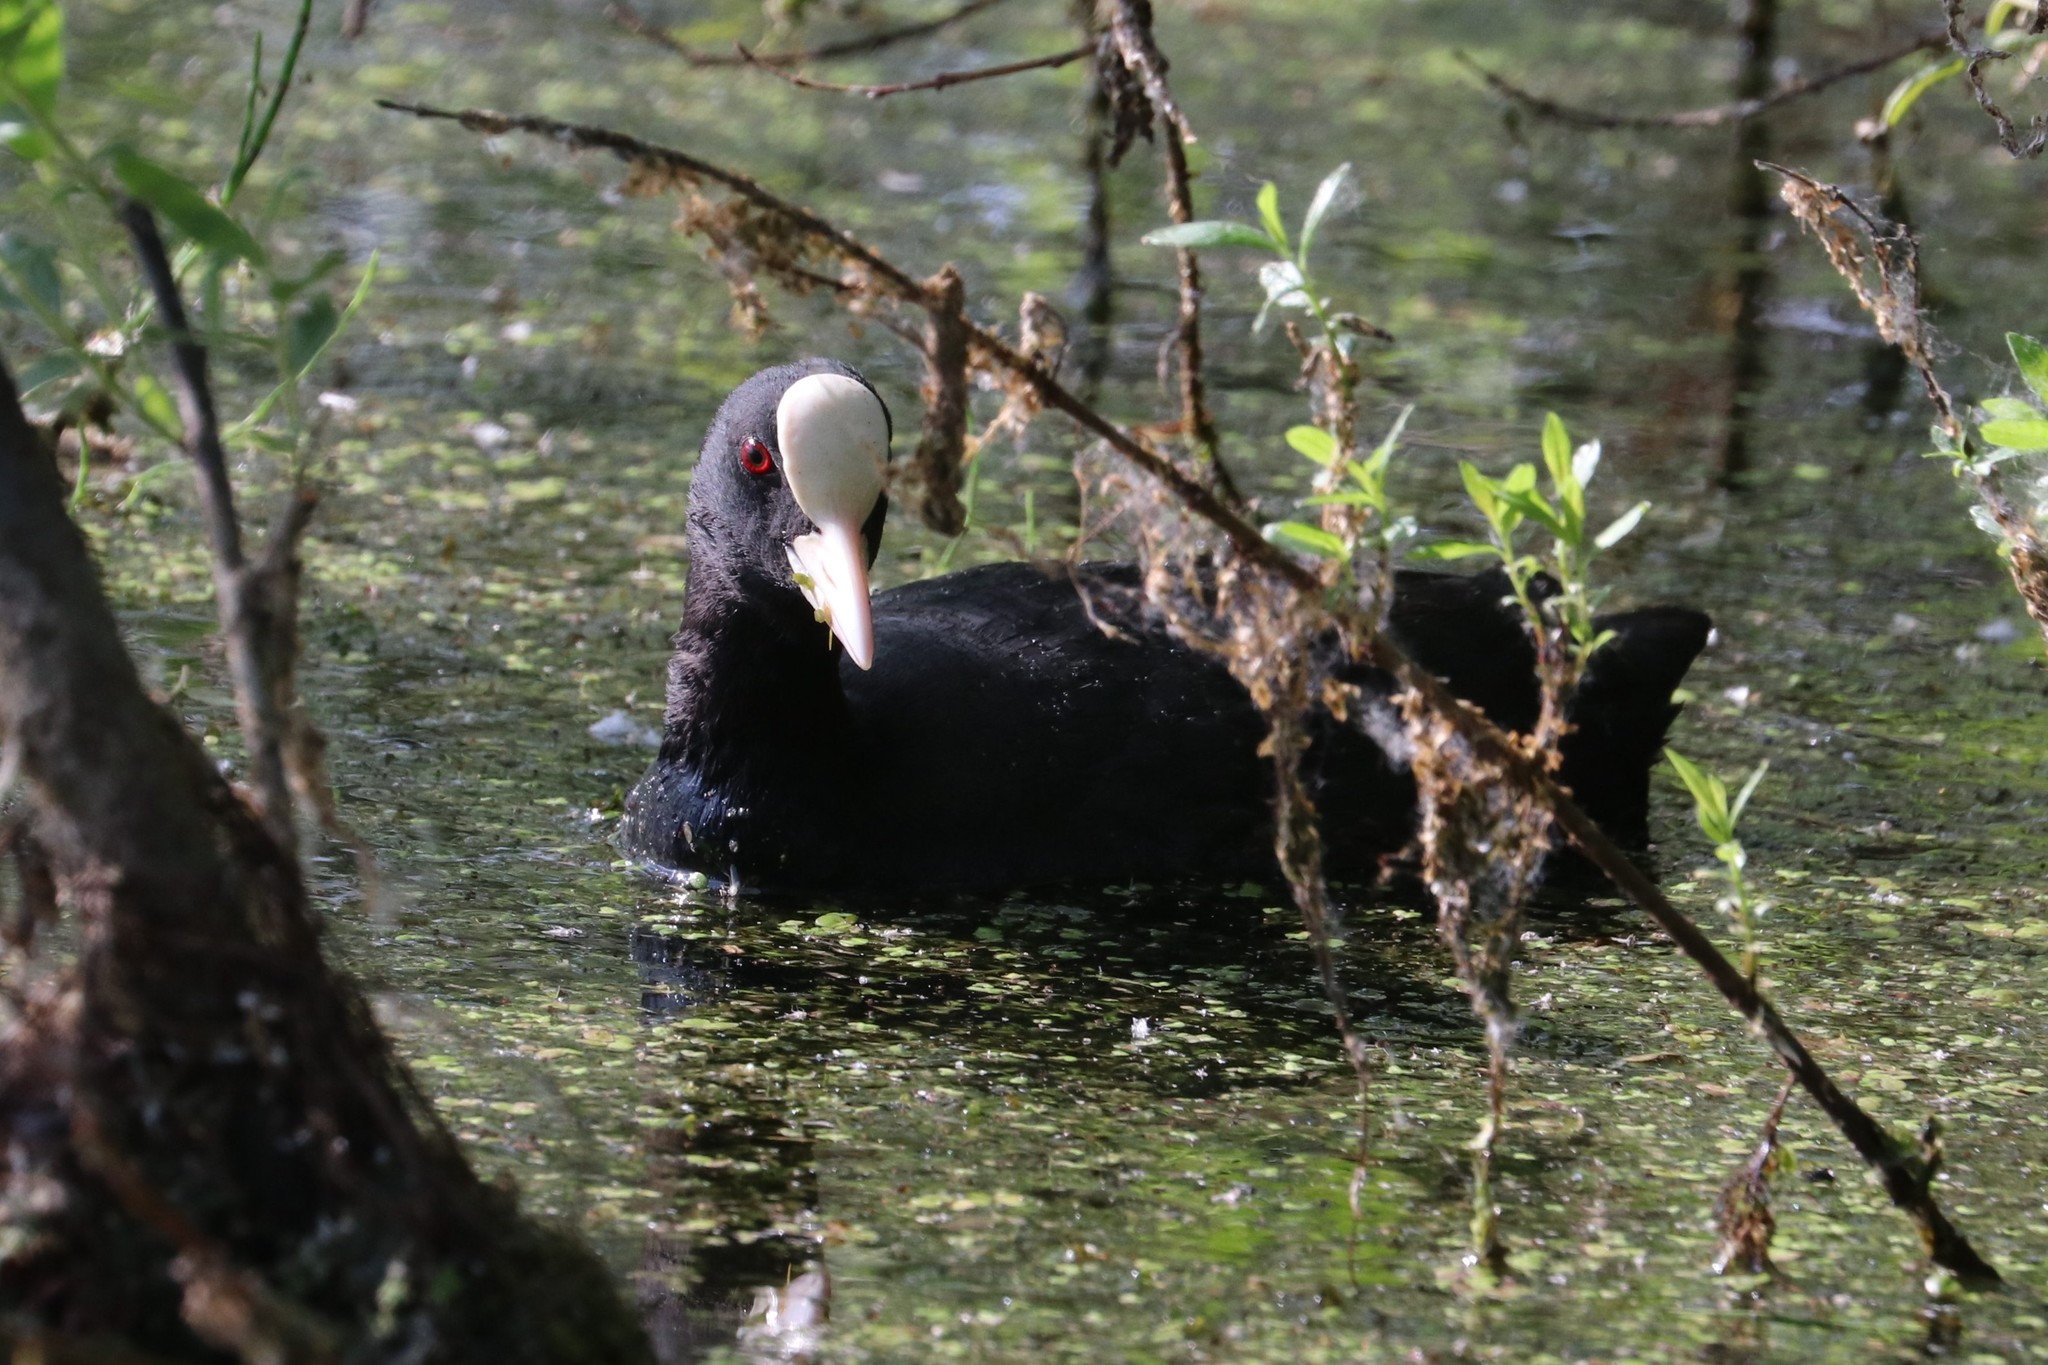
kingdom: Animalia
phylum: Chordata
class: Aves
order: Gruiformes
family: Rallidae
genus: Fulica
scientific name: Fulica atra
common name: Eurasian coot
